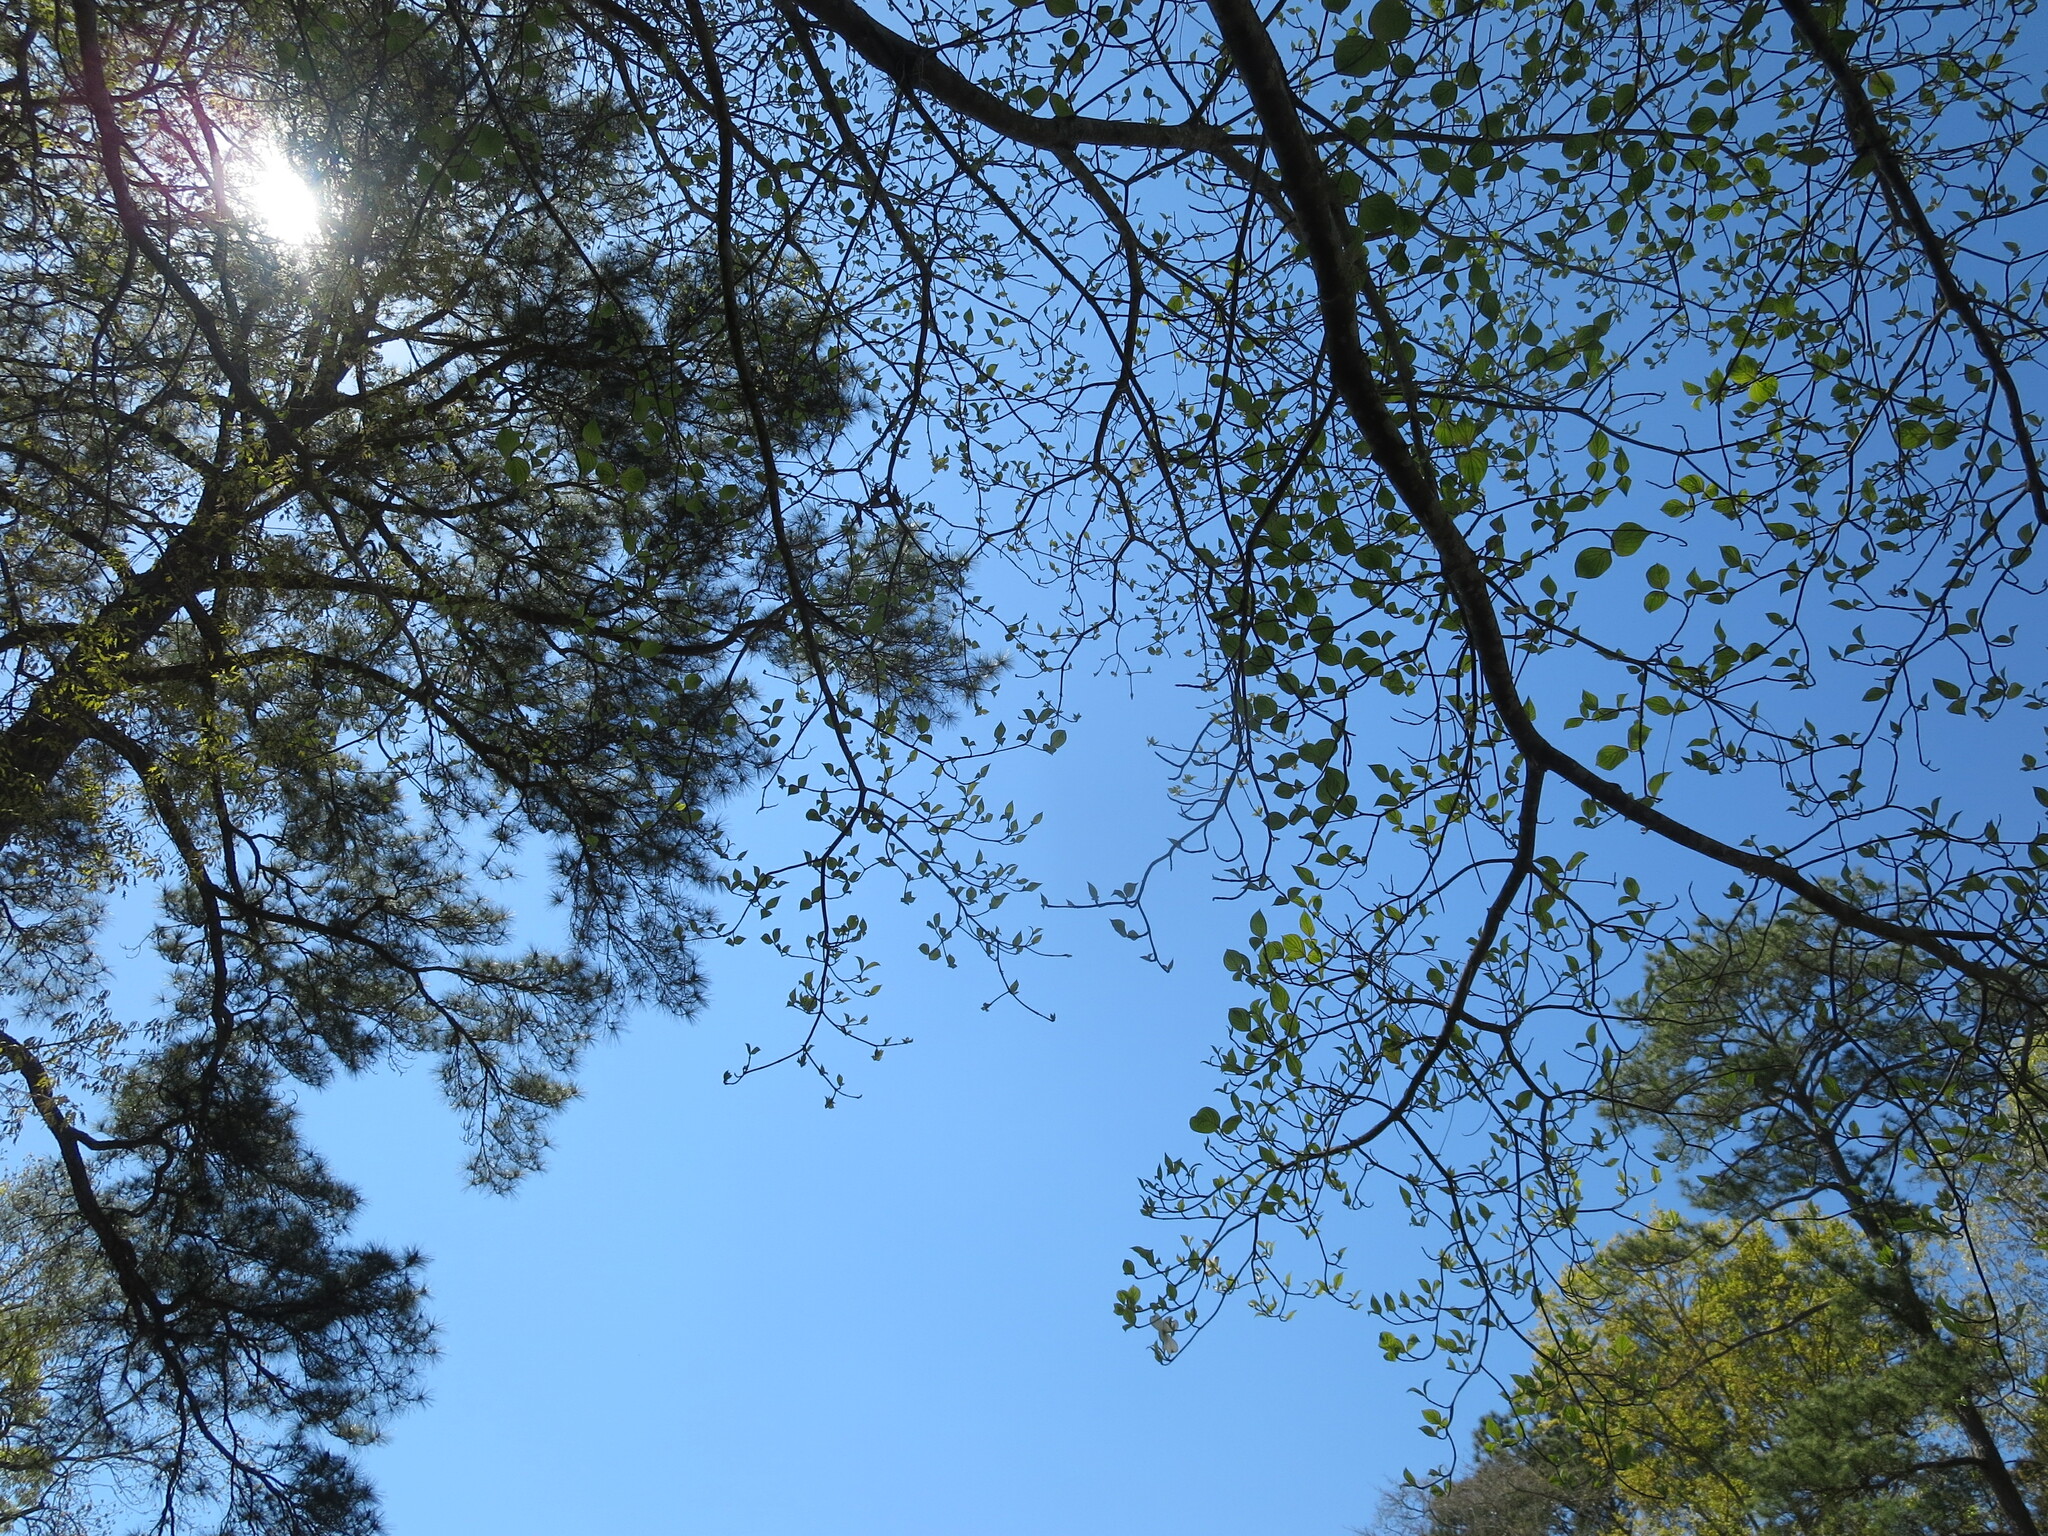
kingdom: Plantae
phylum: Tracheophyta
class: Magnoliopsida
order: Ericales
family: Ebenaceae
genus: Diospyros
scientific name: Diospyros virginiana
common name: Persimmon
